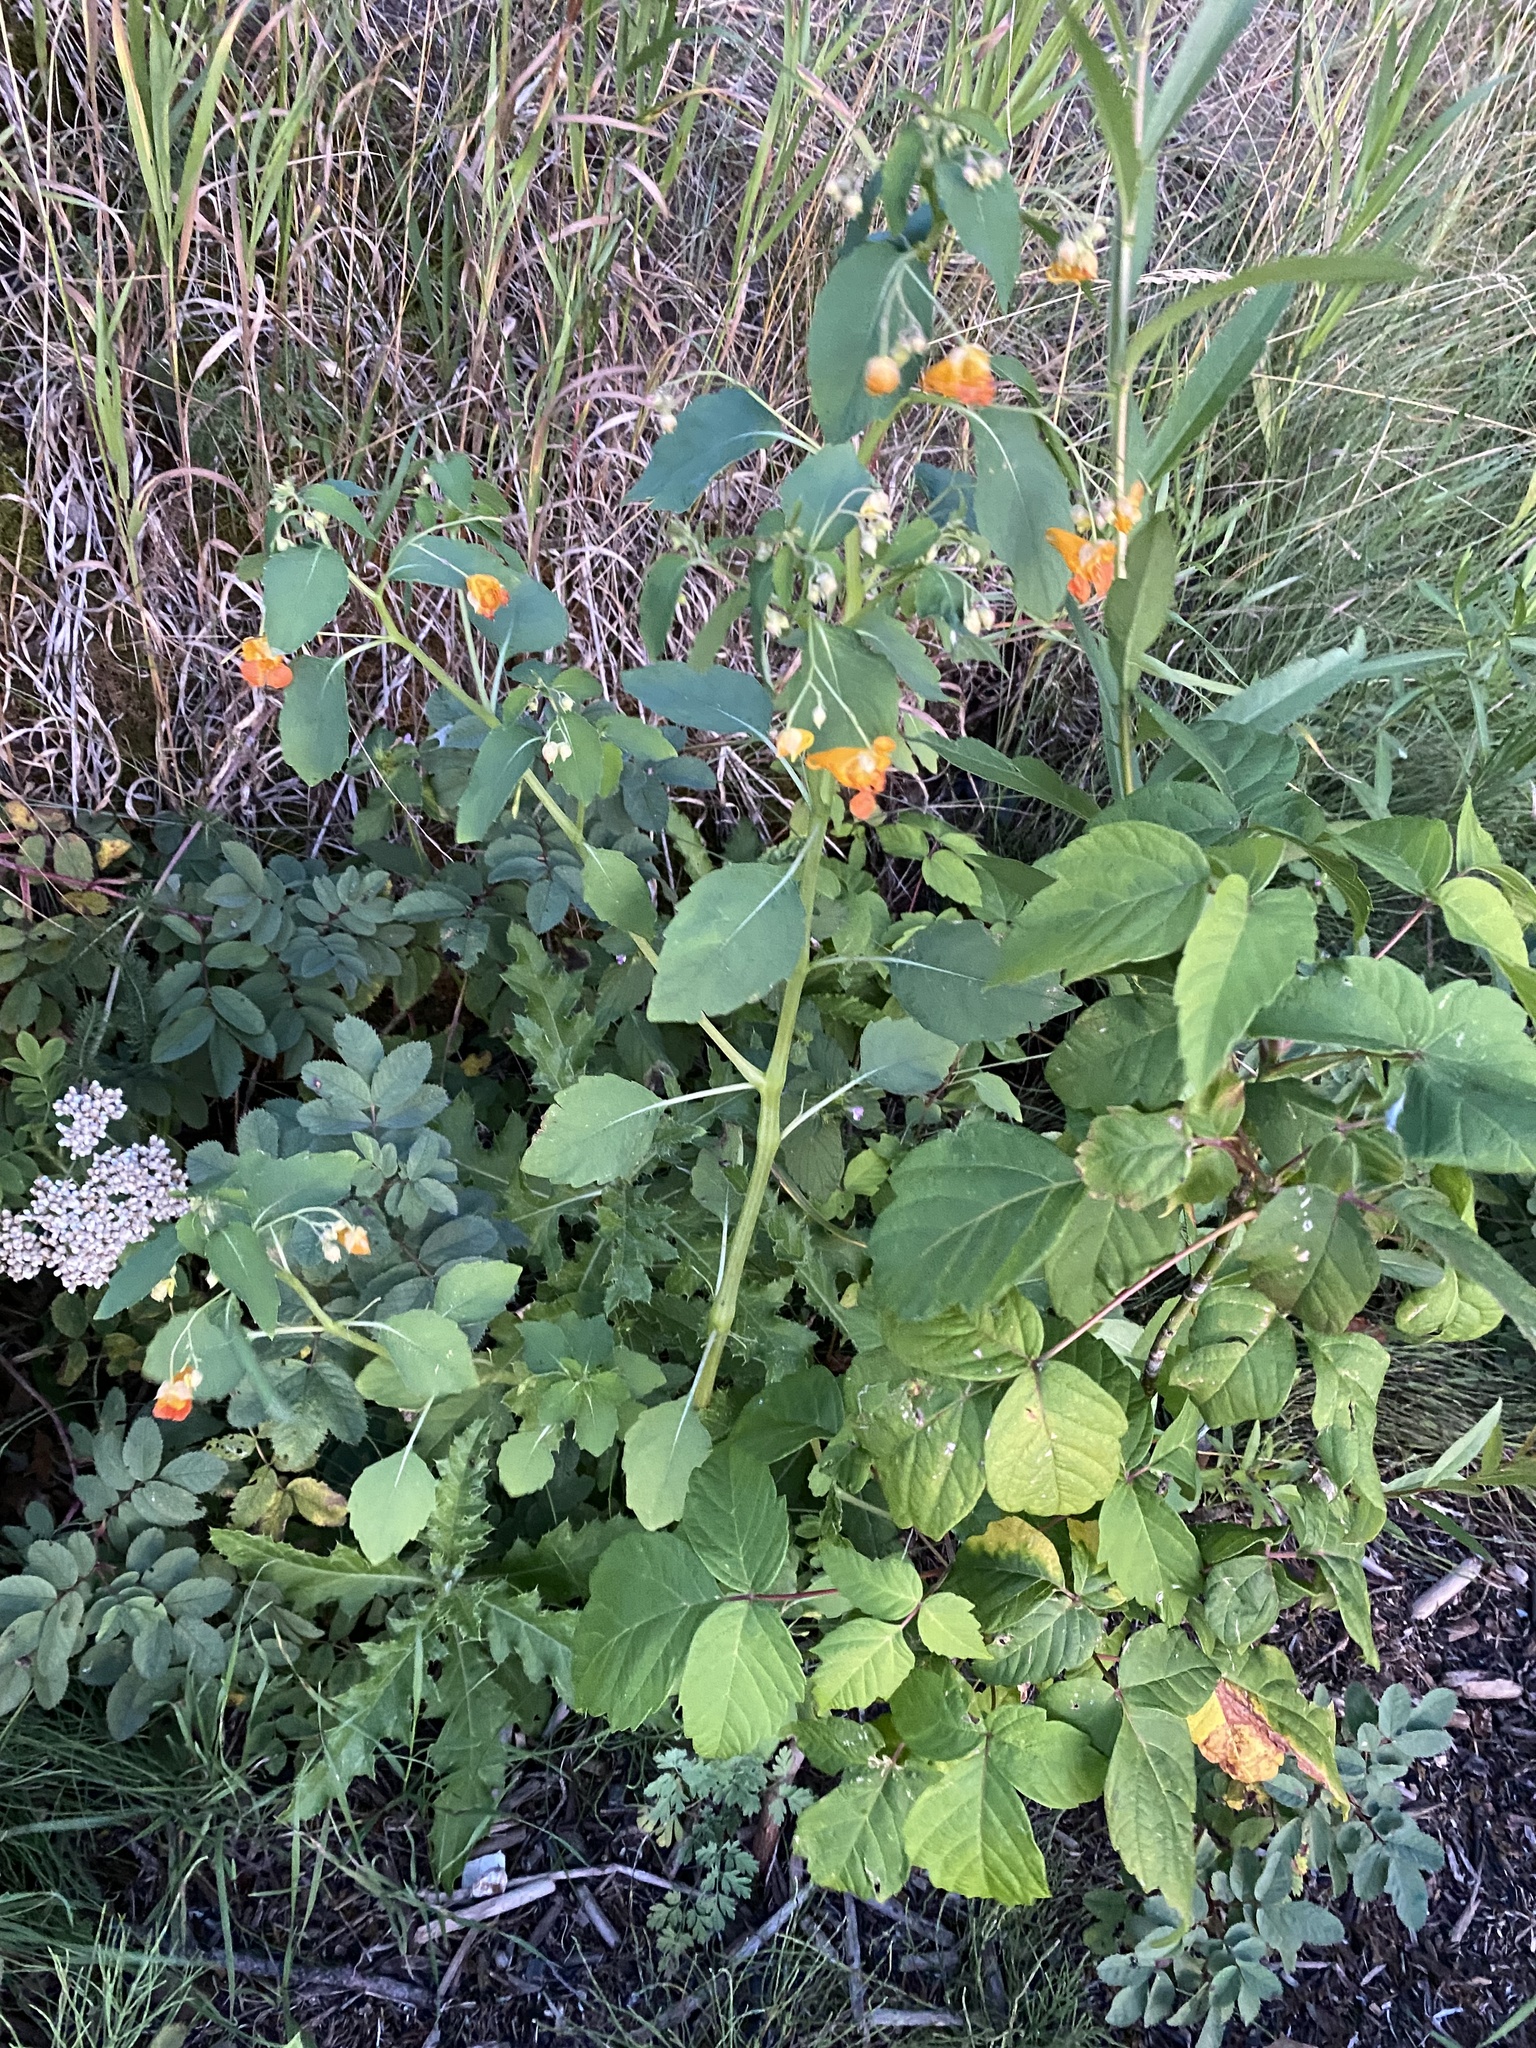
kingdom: Plantae
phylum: Tracheophyta
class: Magnoliopsida
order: Ericales
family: Balsaminaceae
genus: Impatiens
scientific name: Impatiens capensis
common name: Orange balsam
